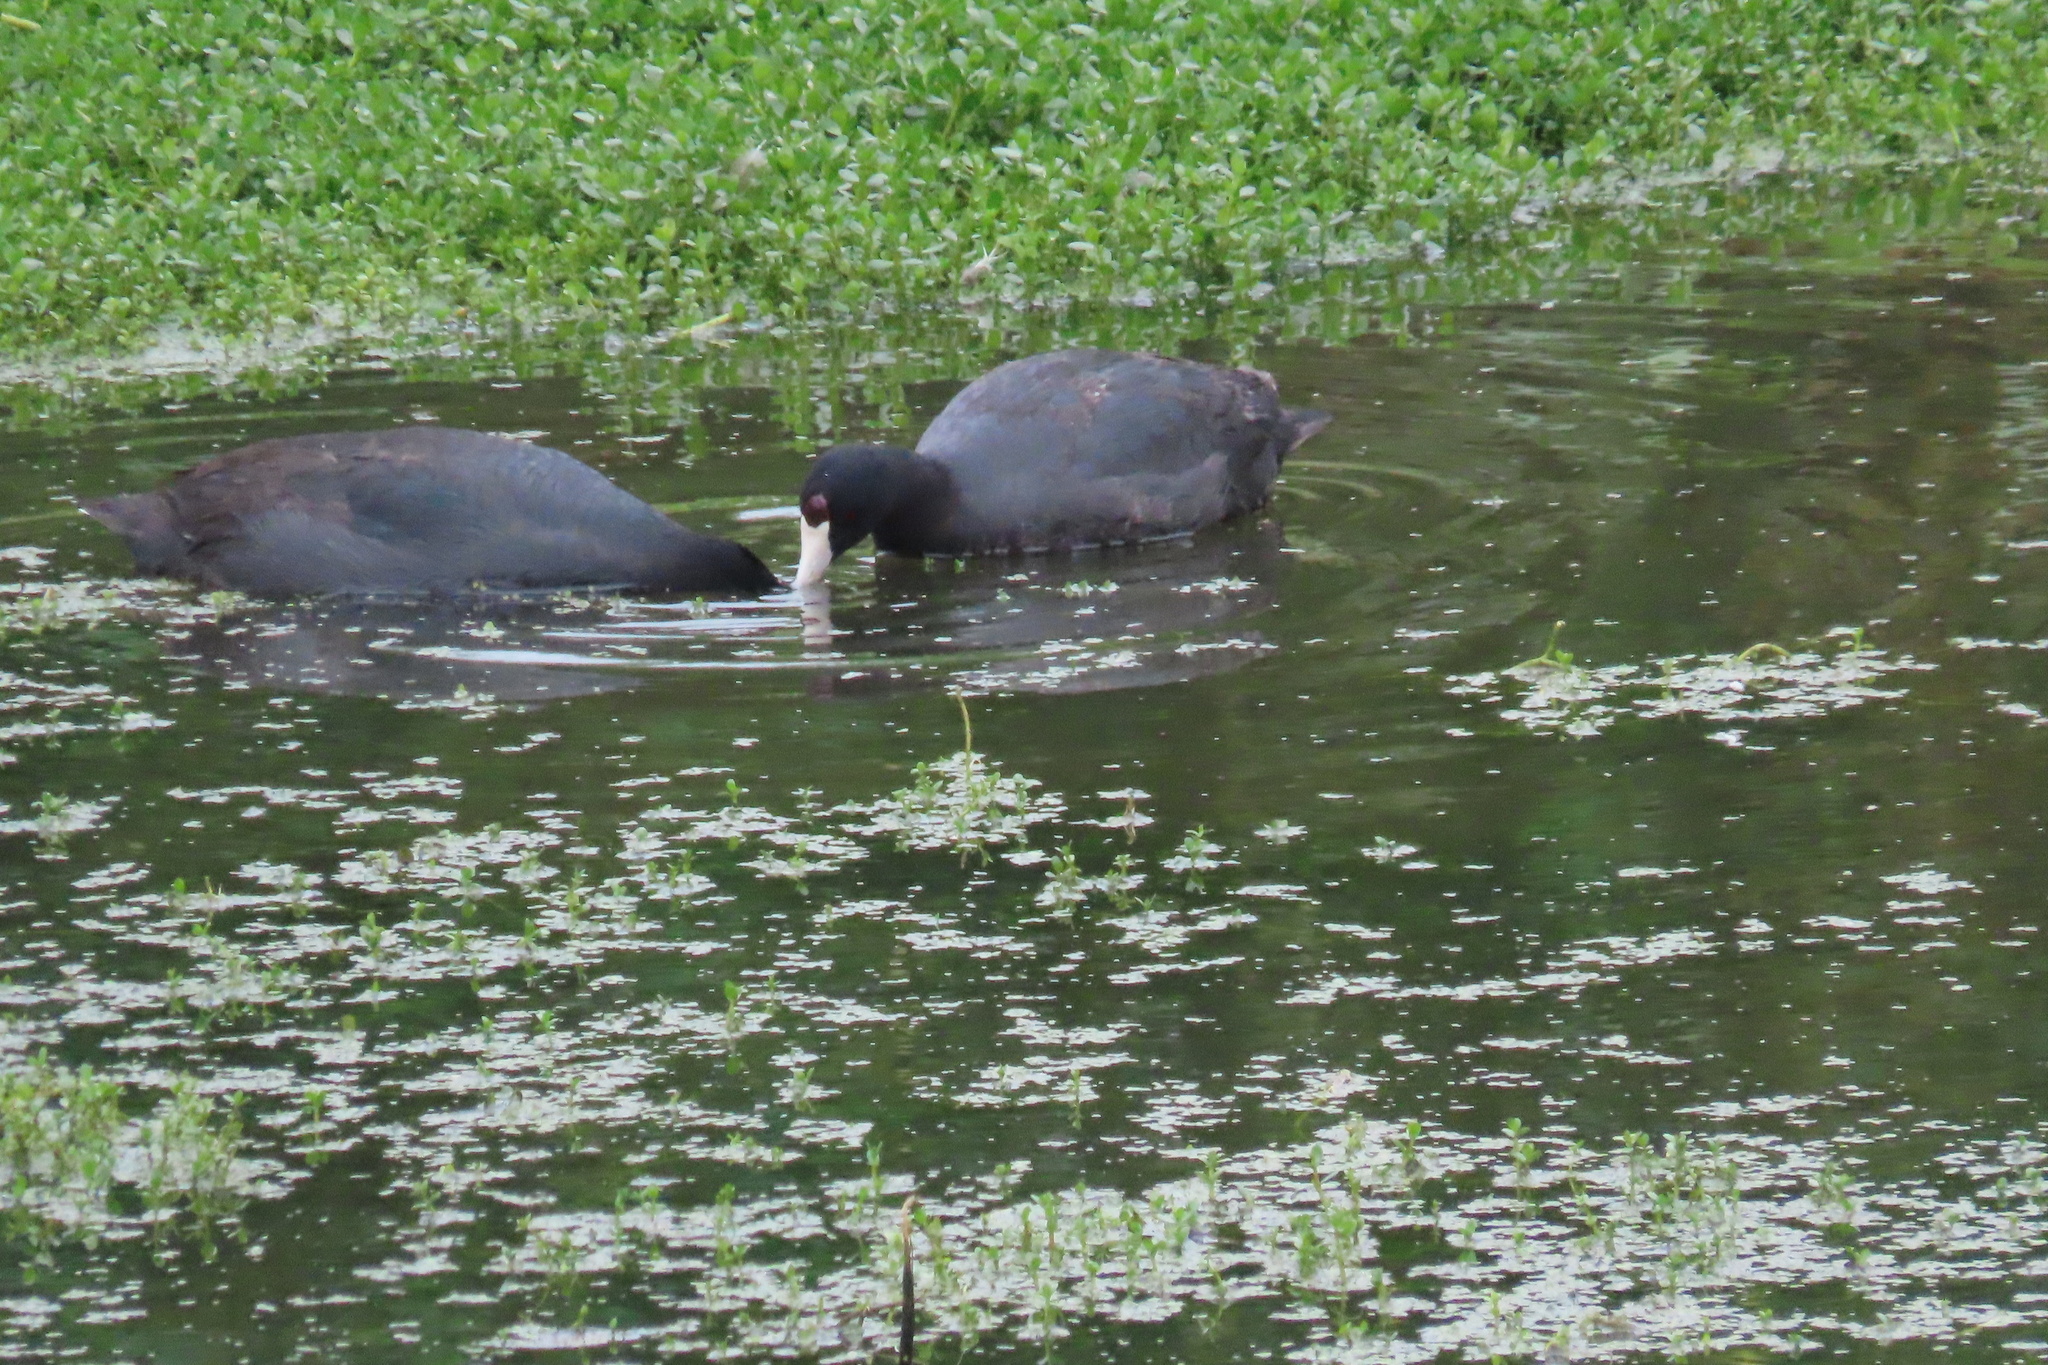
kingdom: Animalia
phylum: Chordata
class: Aves
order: Gruiformes
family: Rallidae
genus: Fulica
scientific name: Fulica americana
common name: American coot
